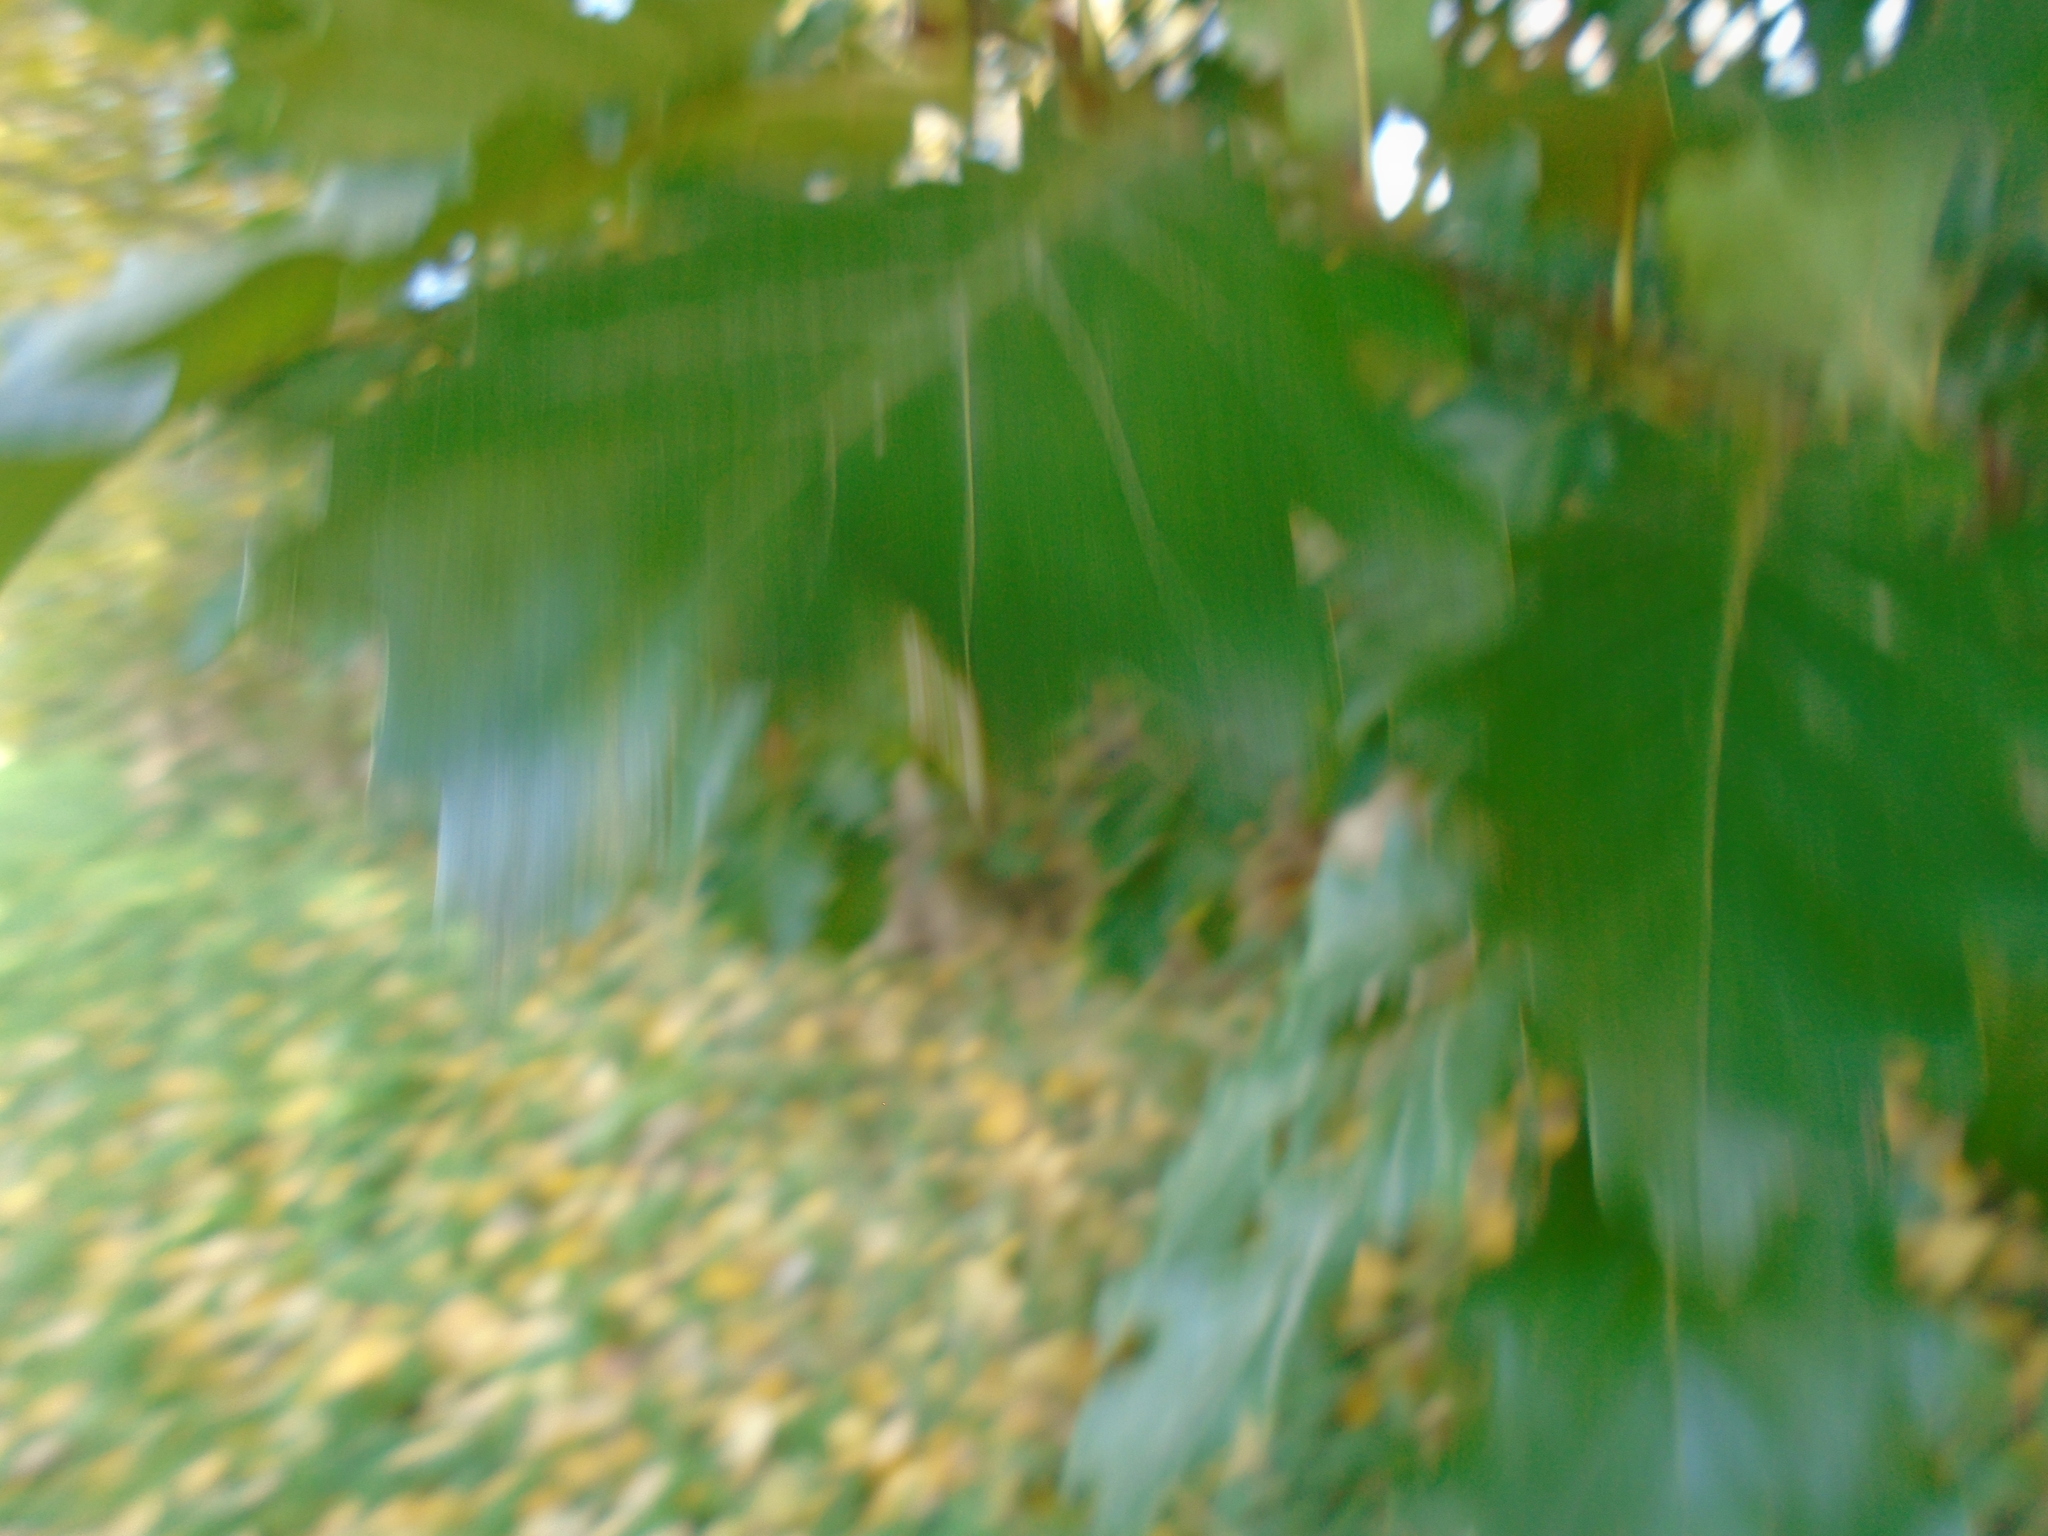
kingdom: Plantae
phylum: Tracheophyta
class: Magnoliopsida
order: Fagales
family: Fagaceae
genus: Quercus
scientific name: Quercus petraea
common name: Sessile oak
